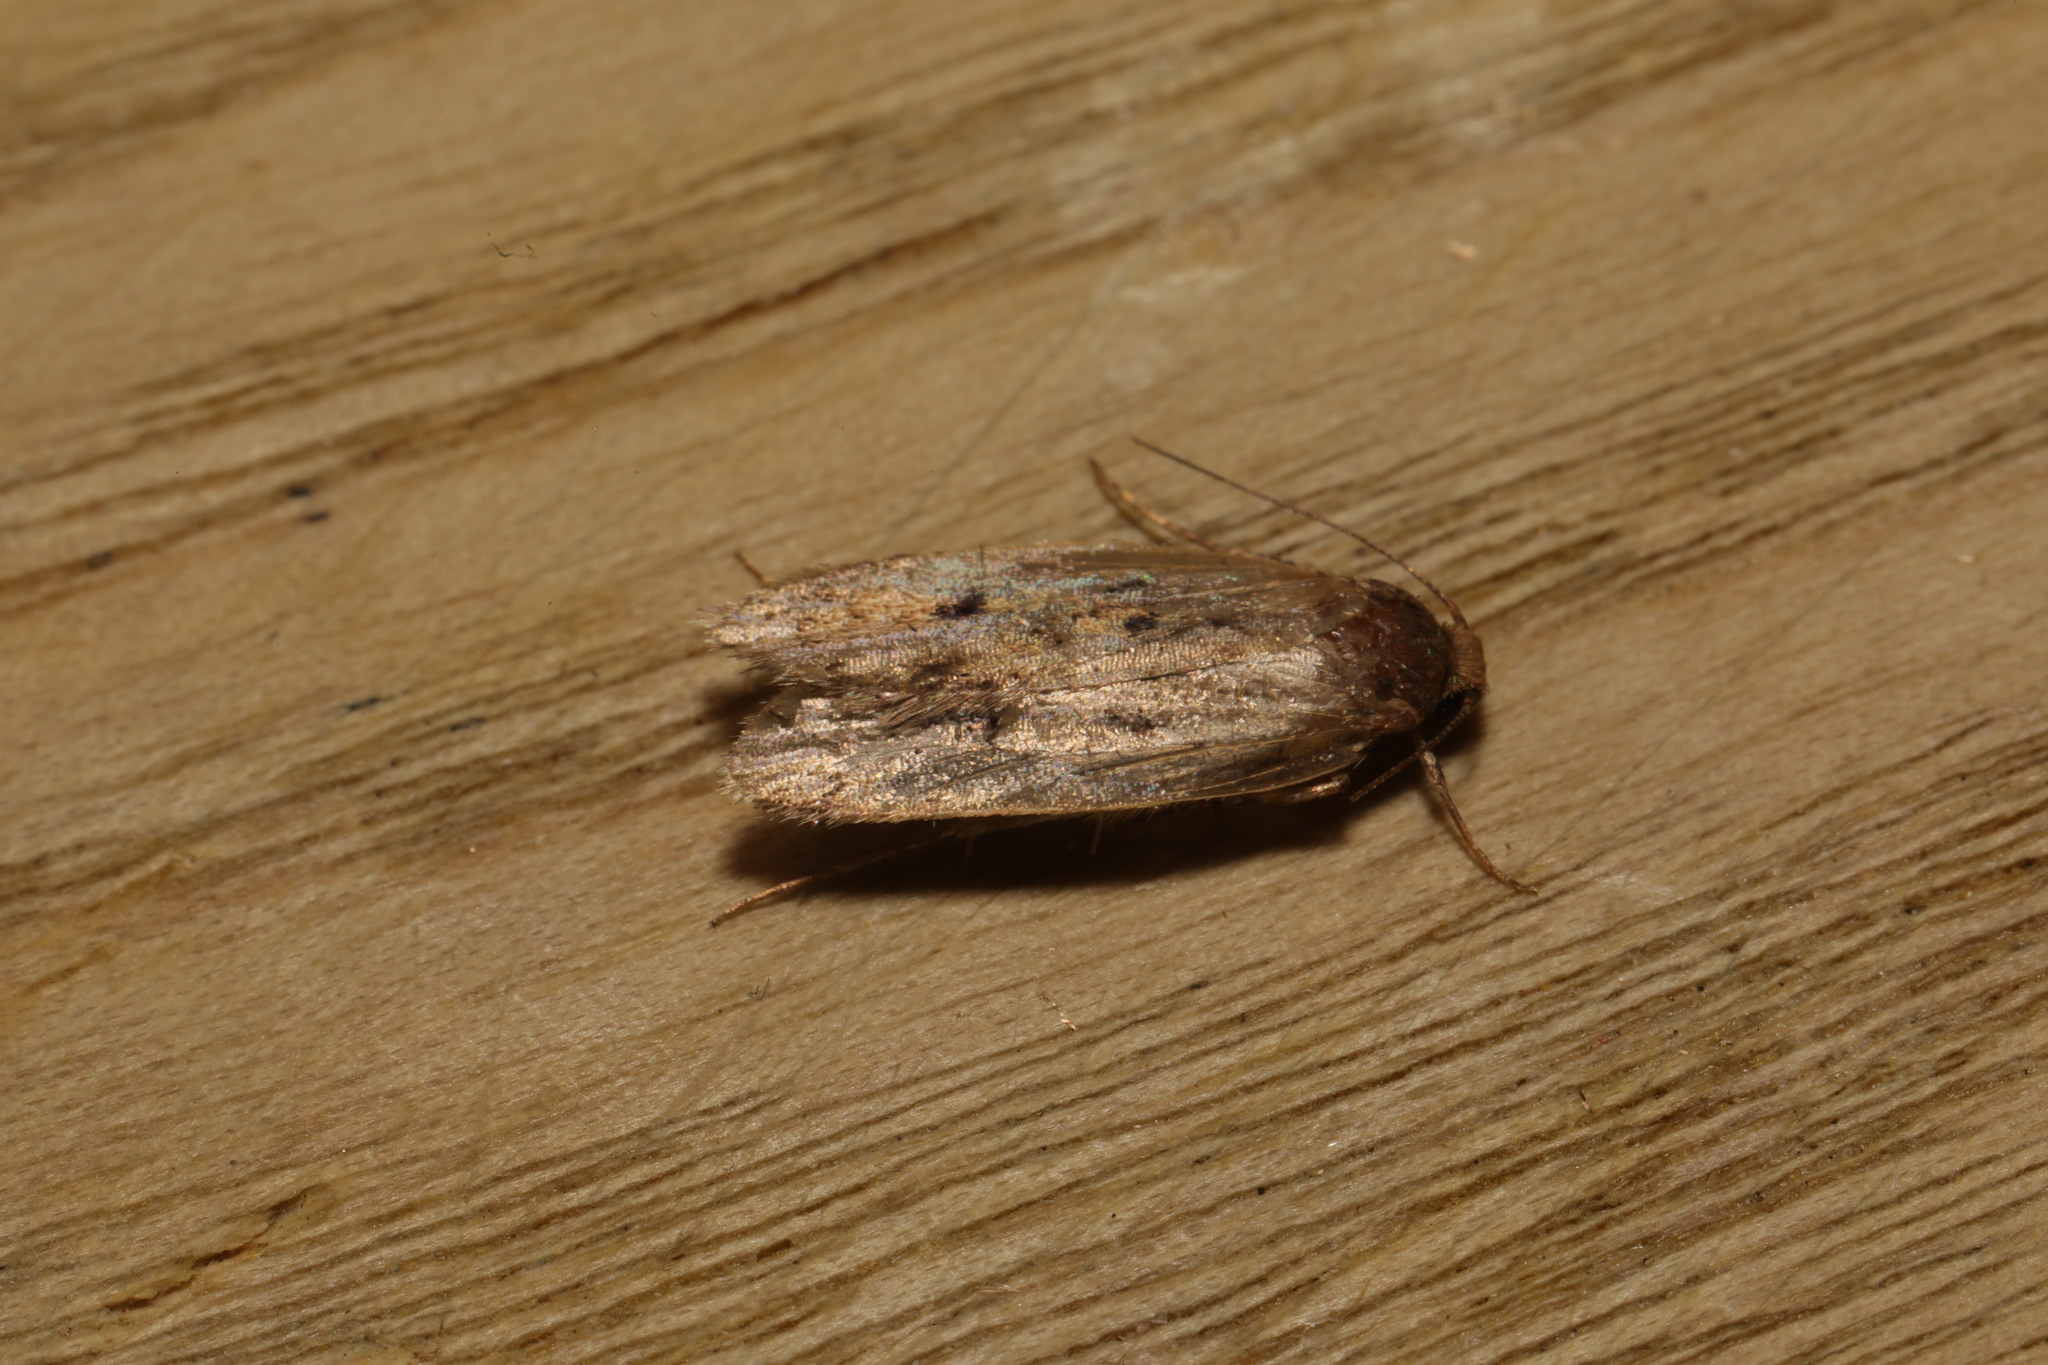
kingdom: Animalia
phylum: Arthropoda
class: Insecta
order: Lepidoptera
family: Oecophoridae
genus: Hofmannophila
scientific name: Hofmannophila pseudospretella
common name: Brown house moth
